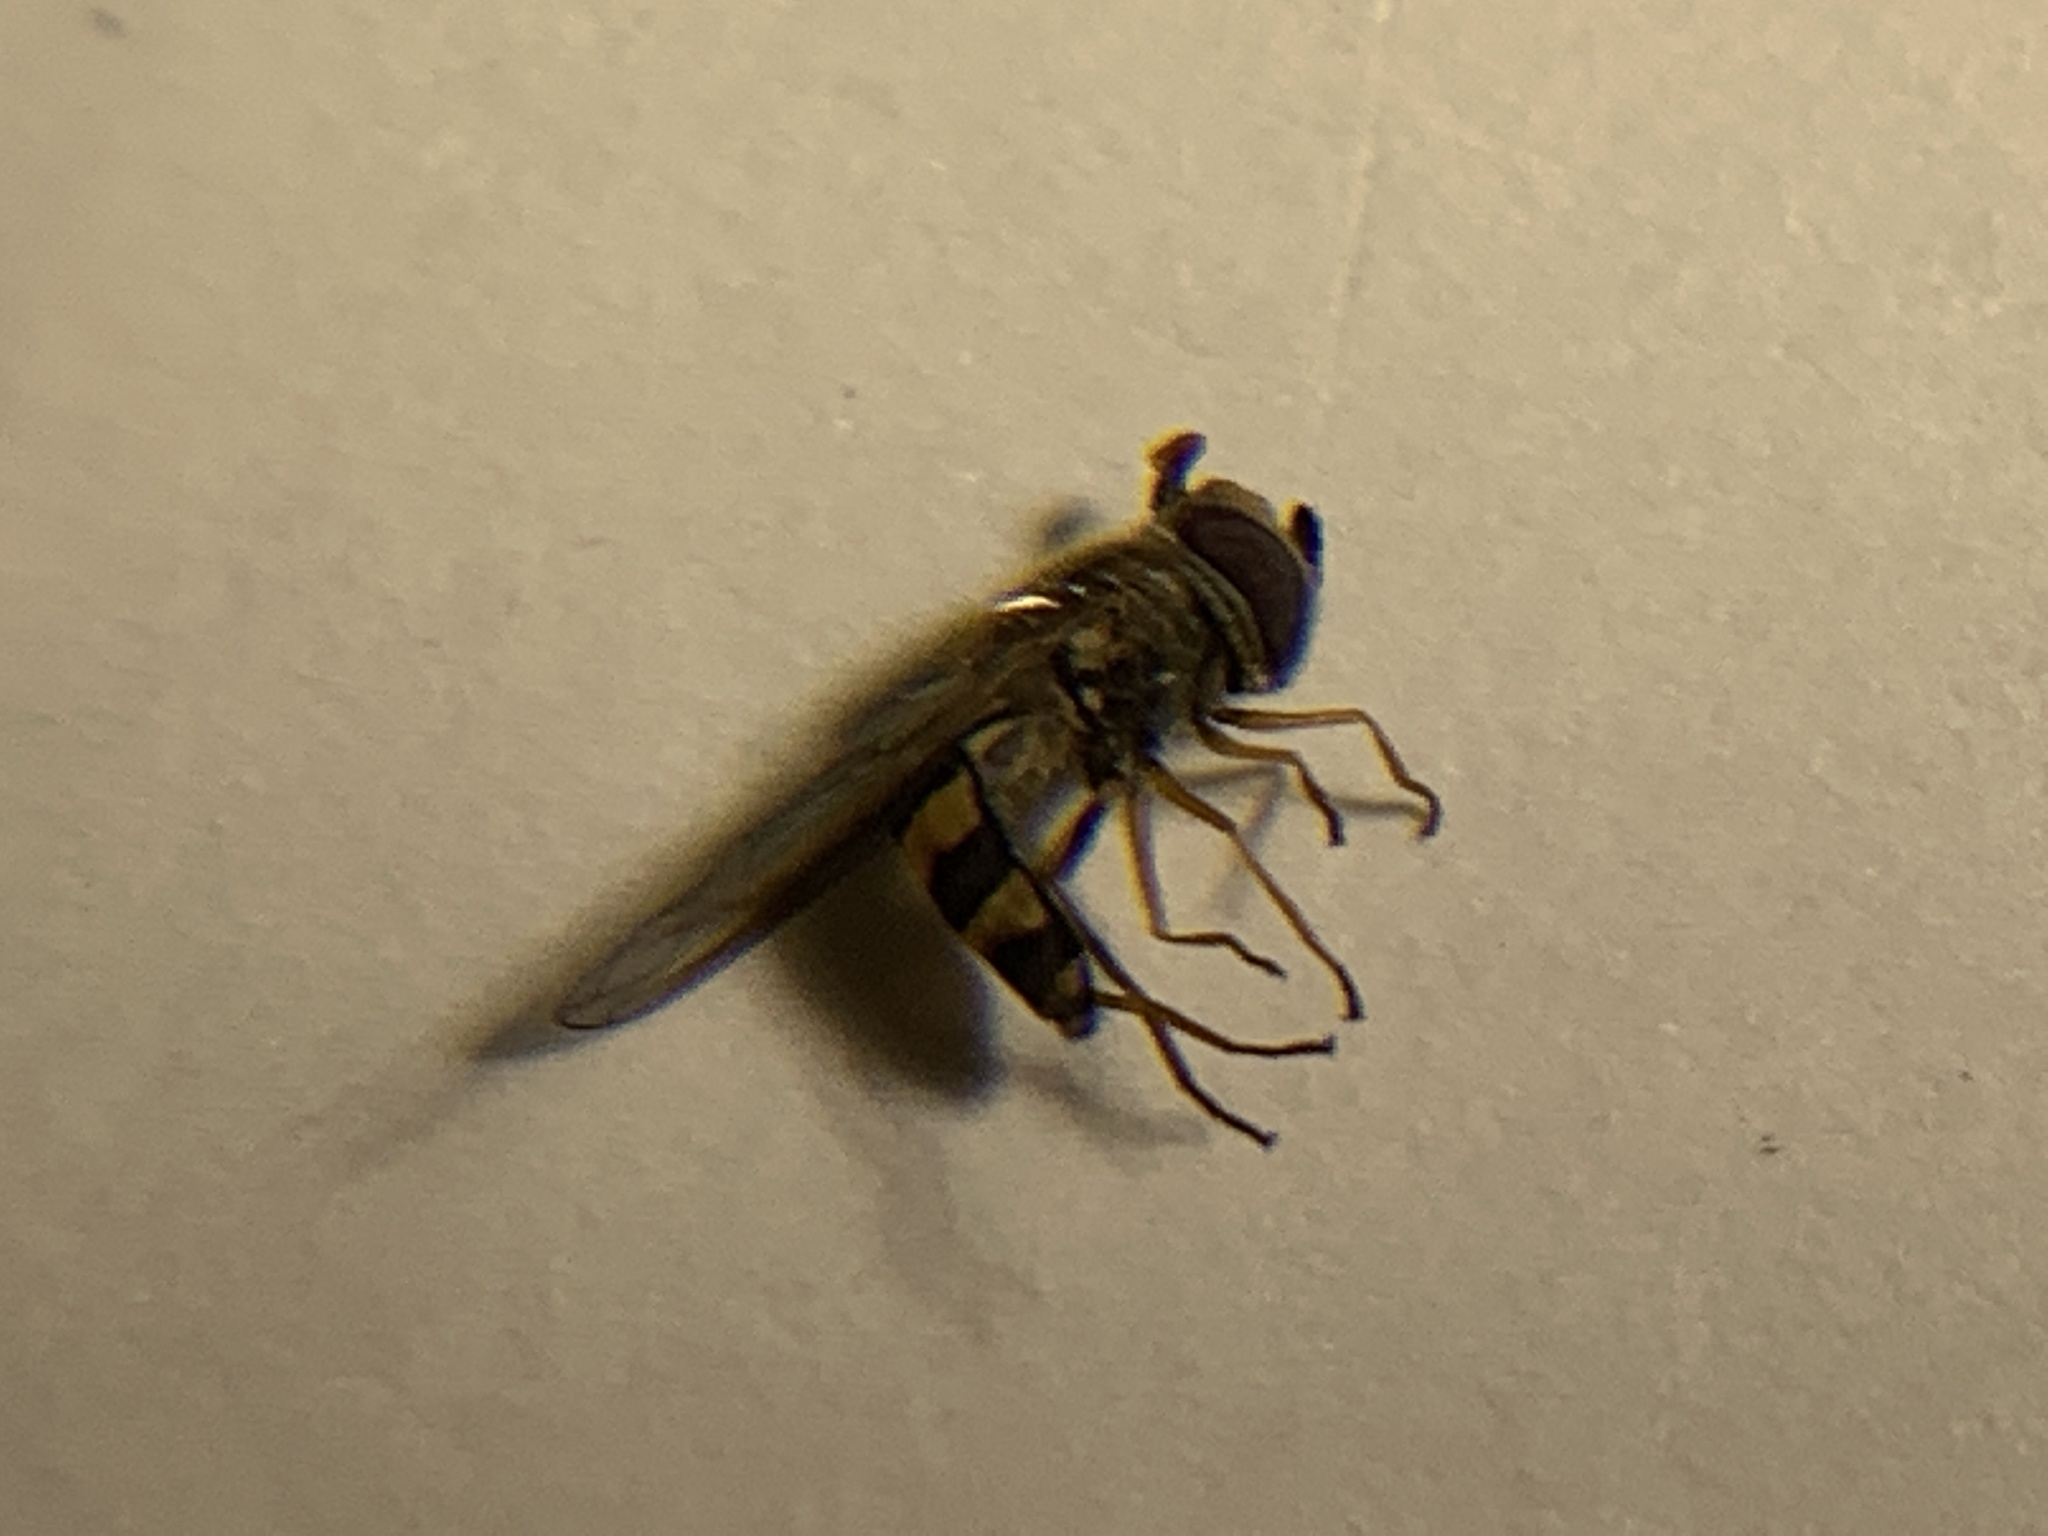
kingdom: Animalia
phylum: Arthropoda
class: Insecta
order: Diptera
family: Syrphidae
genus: Eupeodes
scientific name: Eupeodes
